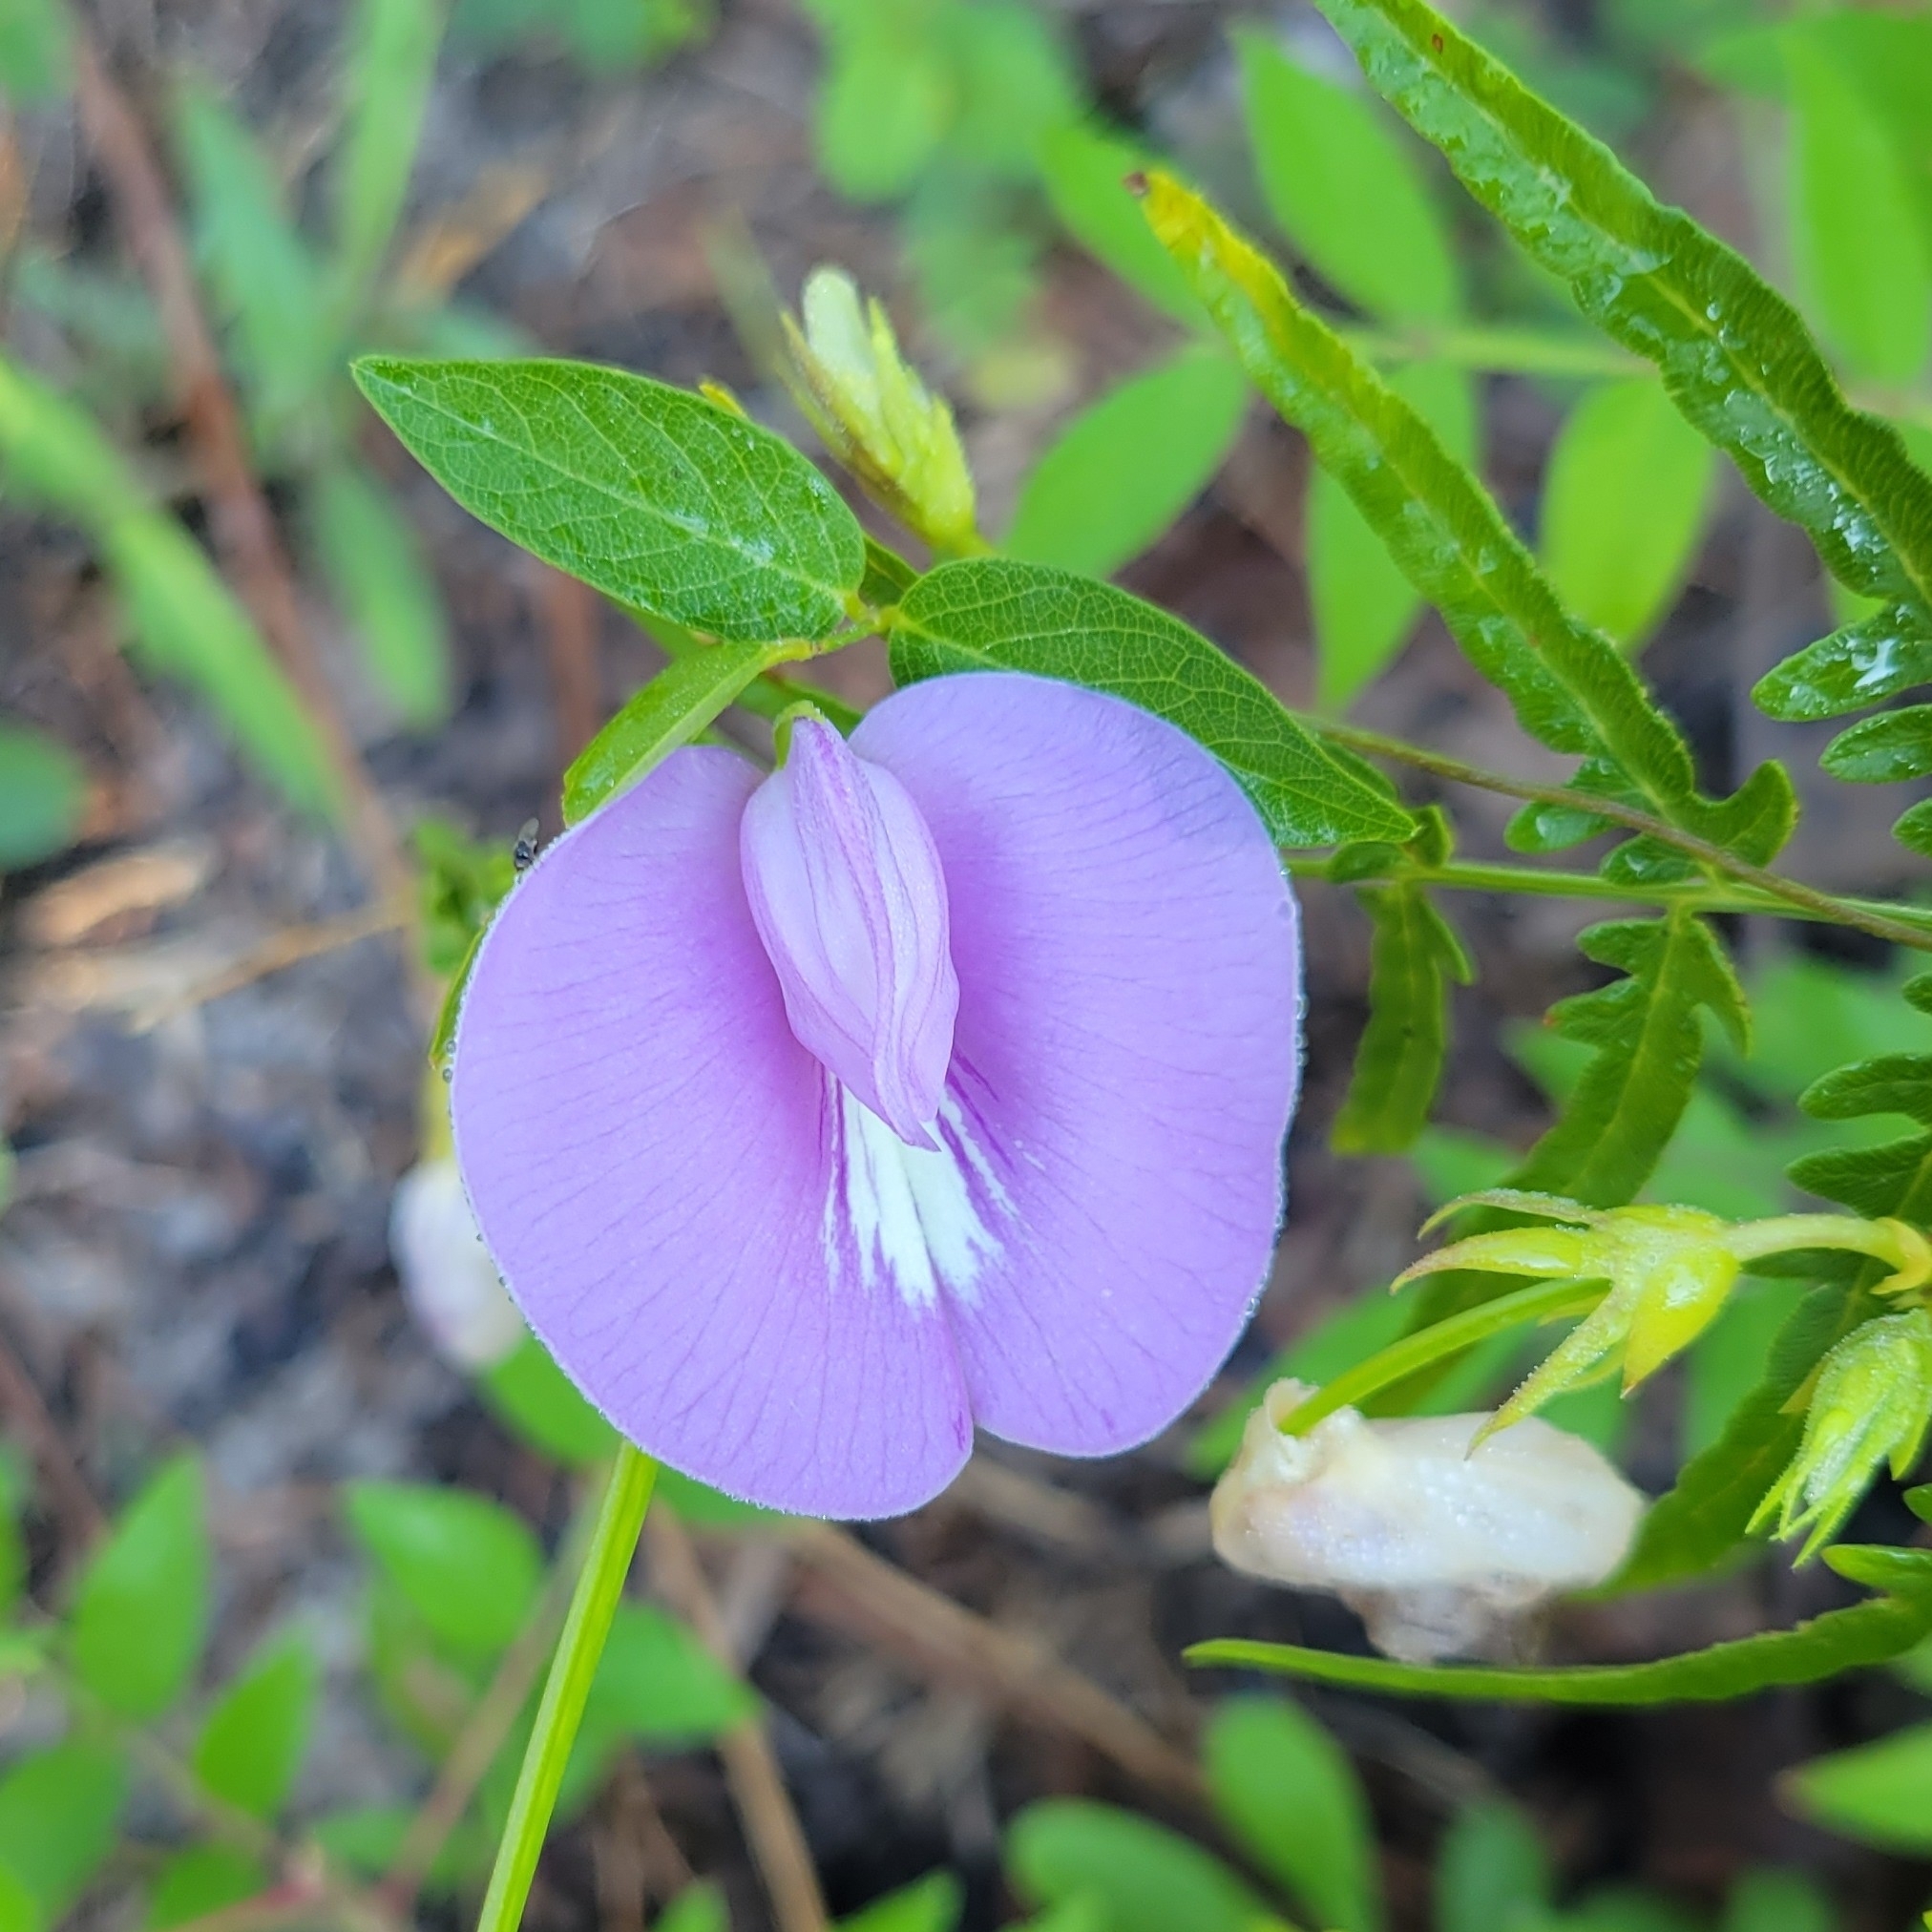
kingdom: Plantae
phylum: Tracheophyta
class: Magnoliopsida
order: Fabales
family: Fabaceae
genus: Centrosema
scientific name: Centrosema virginianum
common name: Butterfly-pea
